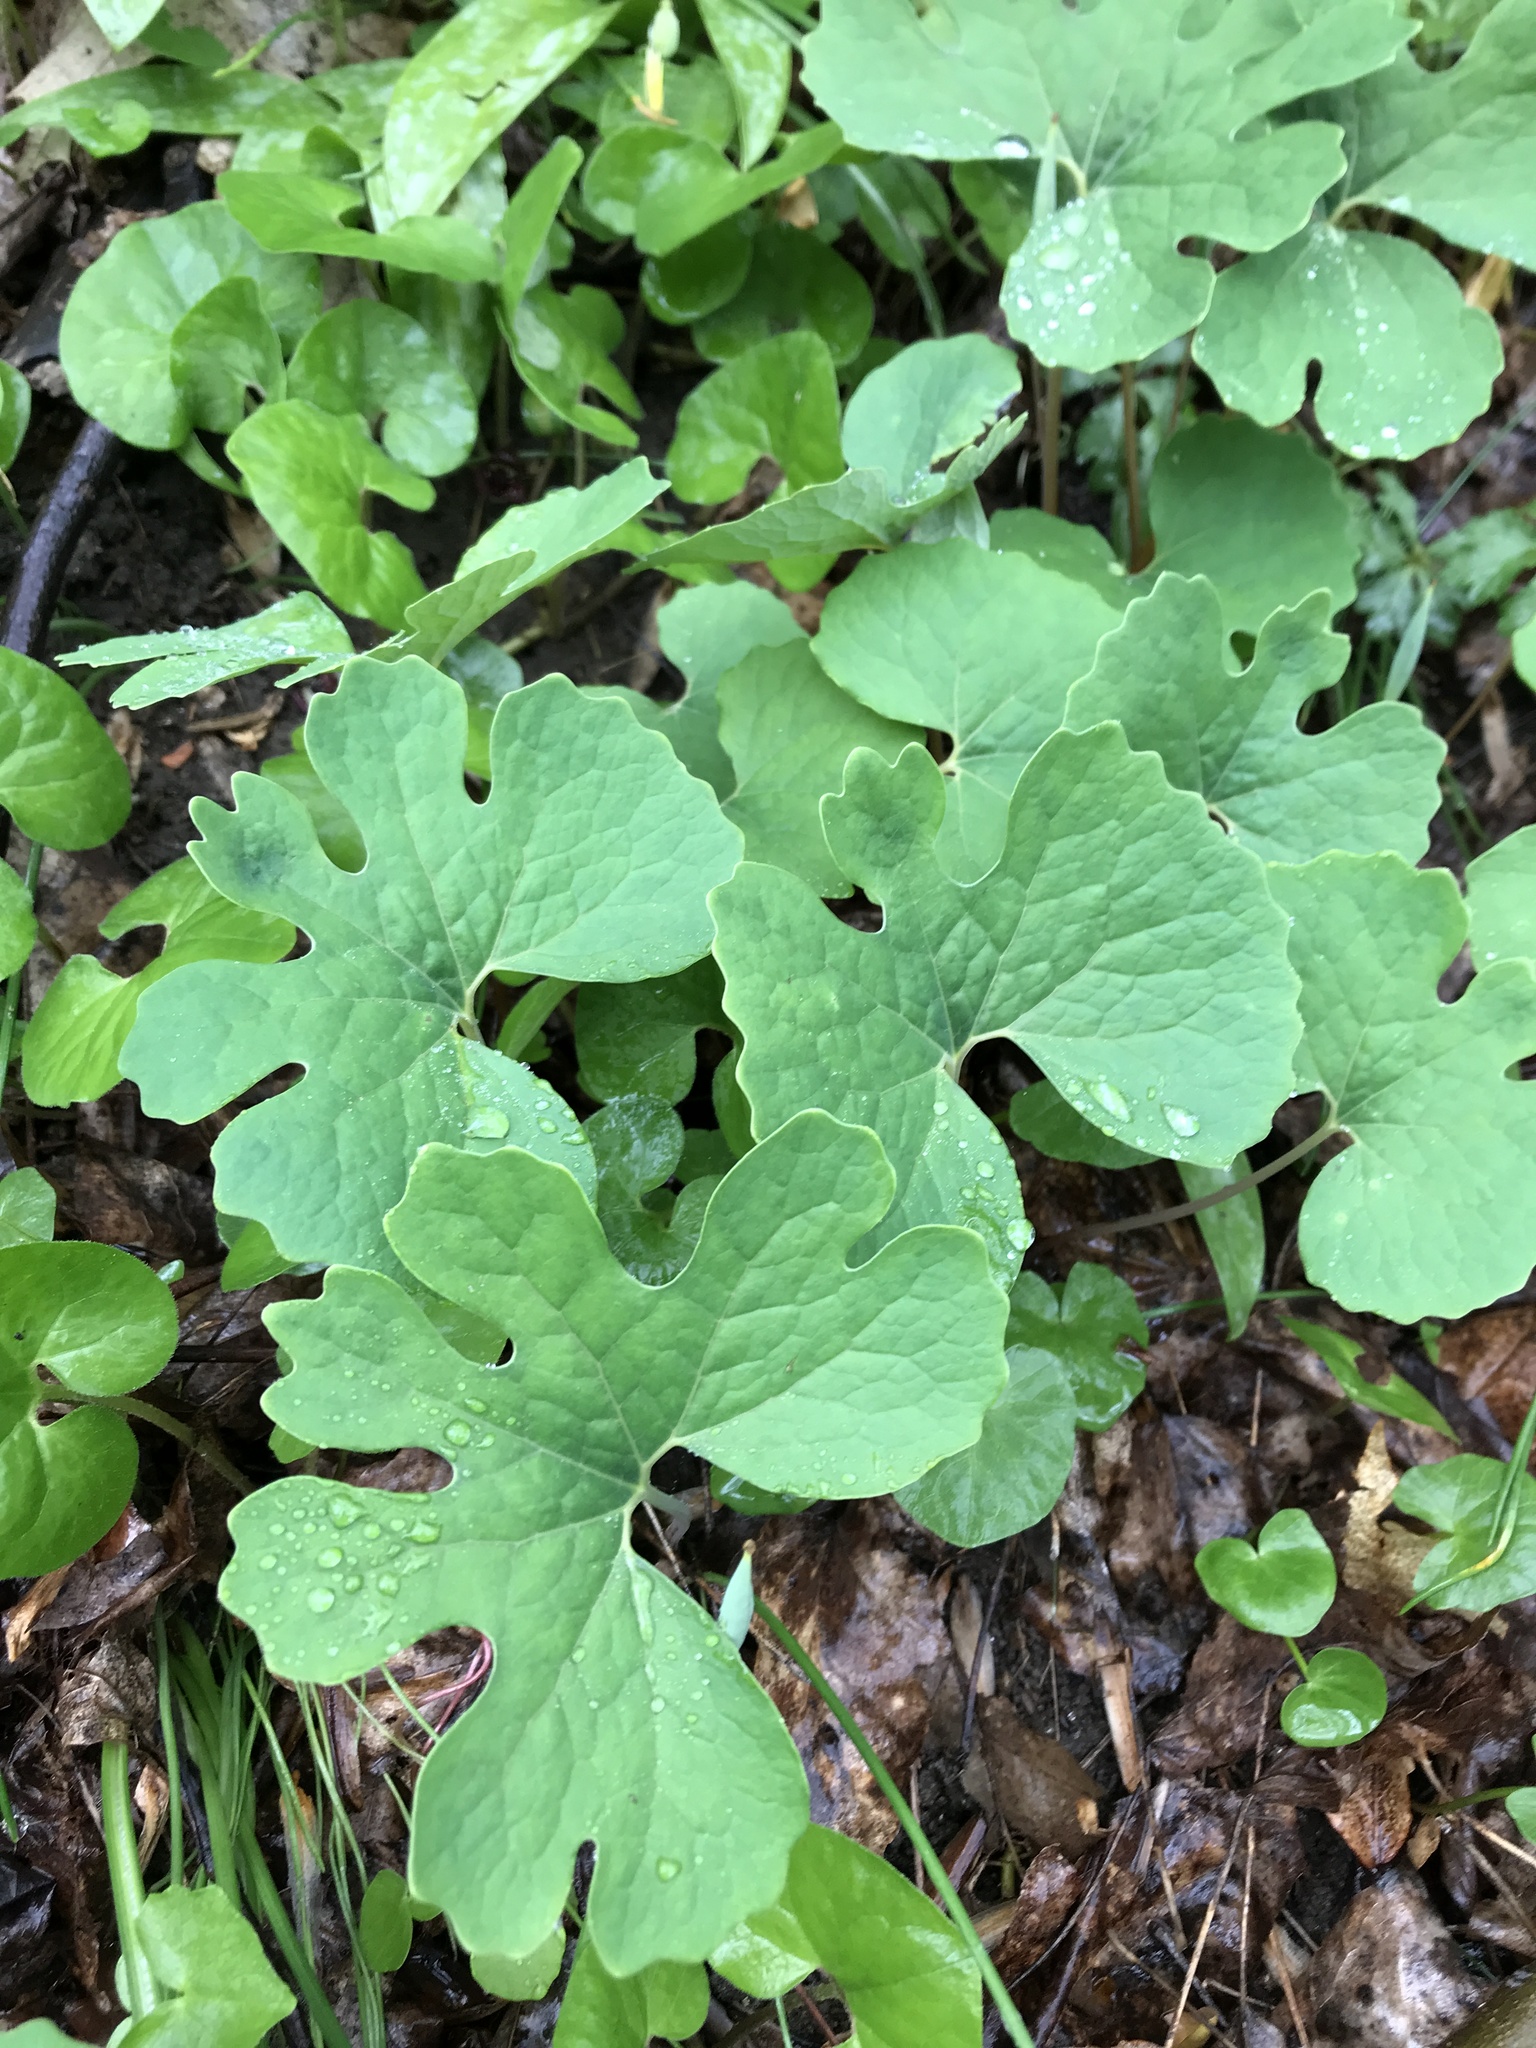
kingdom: Plantae
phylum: Tracheophyta
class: Magnoliopsida
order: Ranunculales
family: Papaveraceae
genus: Sanguinaria
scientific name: Sanguinaria canadensis
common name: Bloodroot
